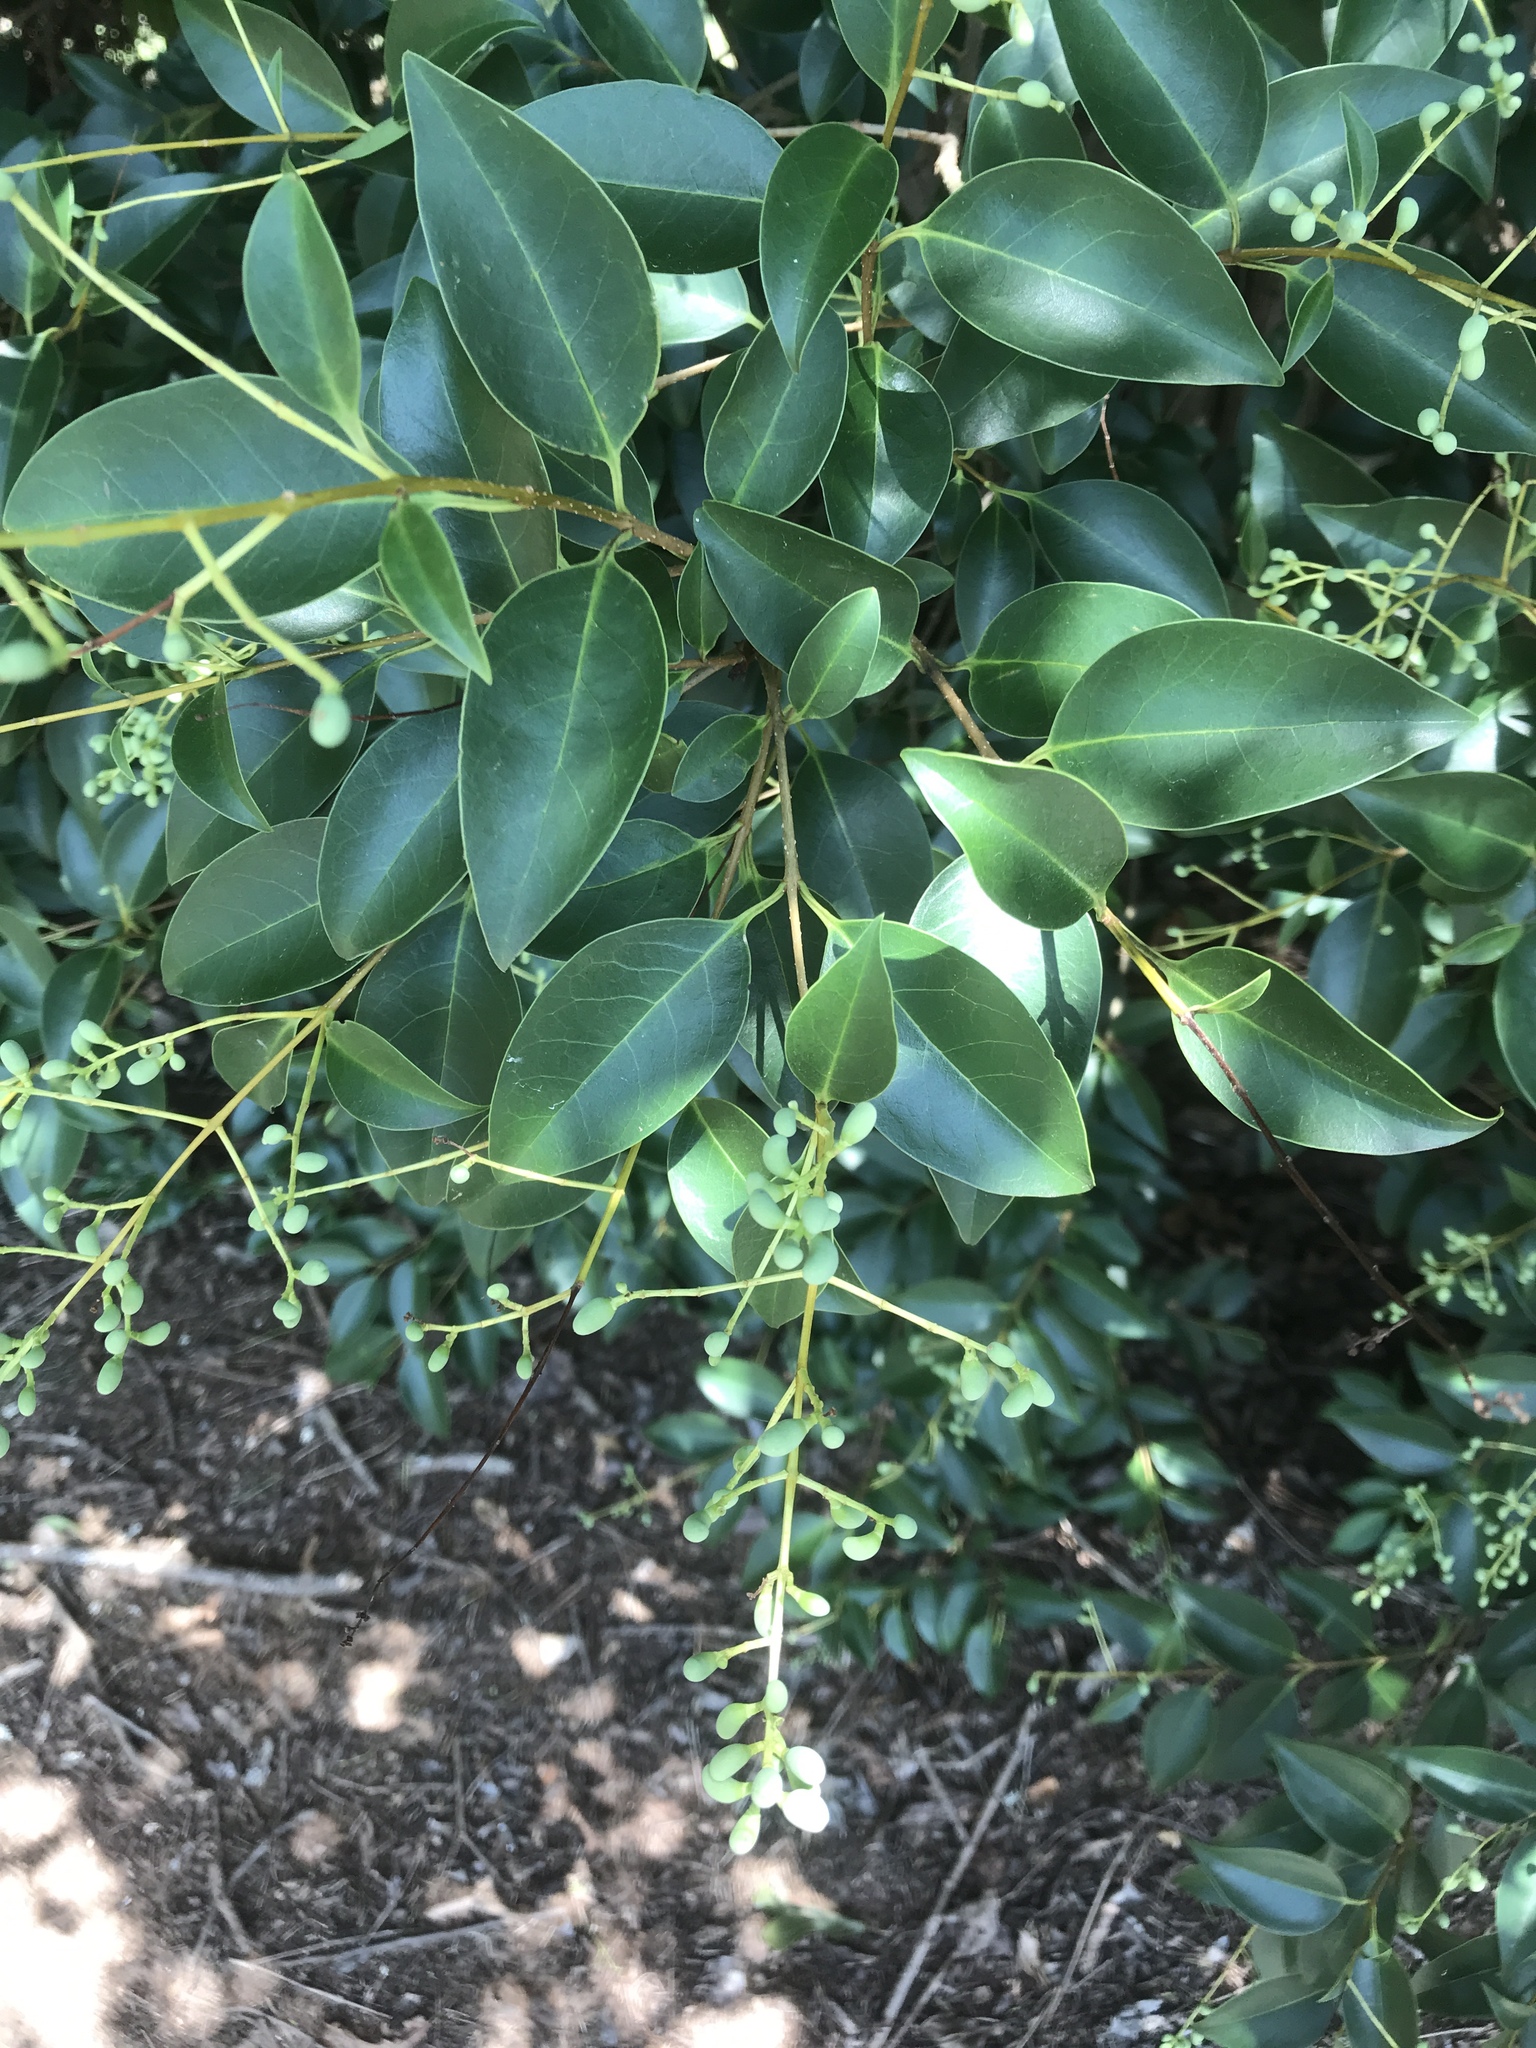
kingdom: Plantae
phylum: Tracheophyta
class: Magnoliopsida
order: Lamiales
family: Oleaceae
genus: Ligustrum
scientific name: Ligustrum lucidum
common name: Glossy privet
